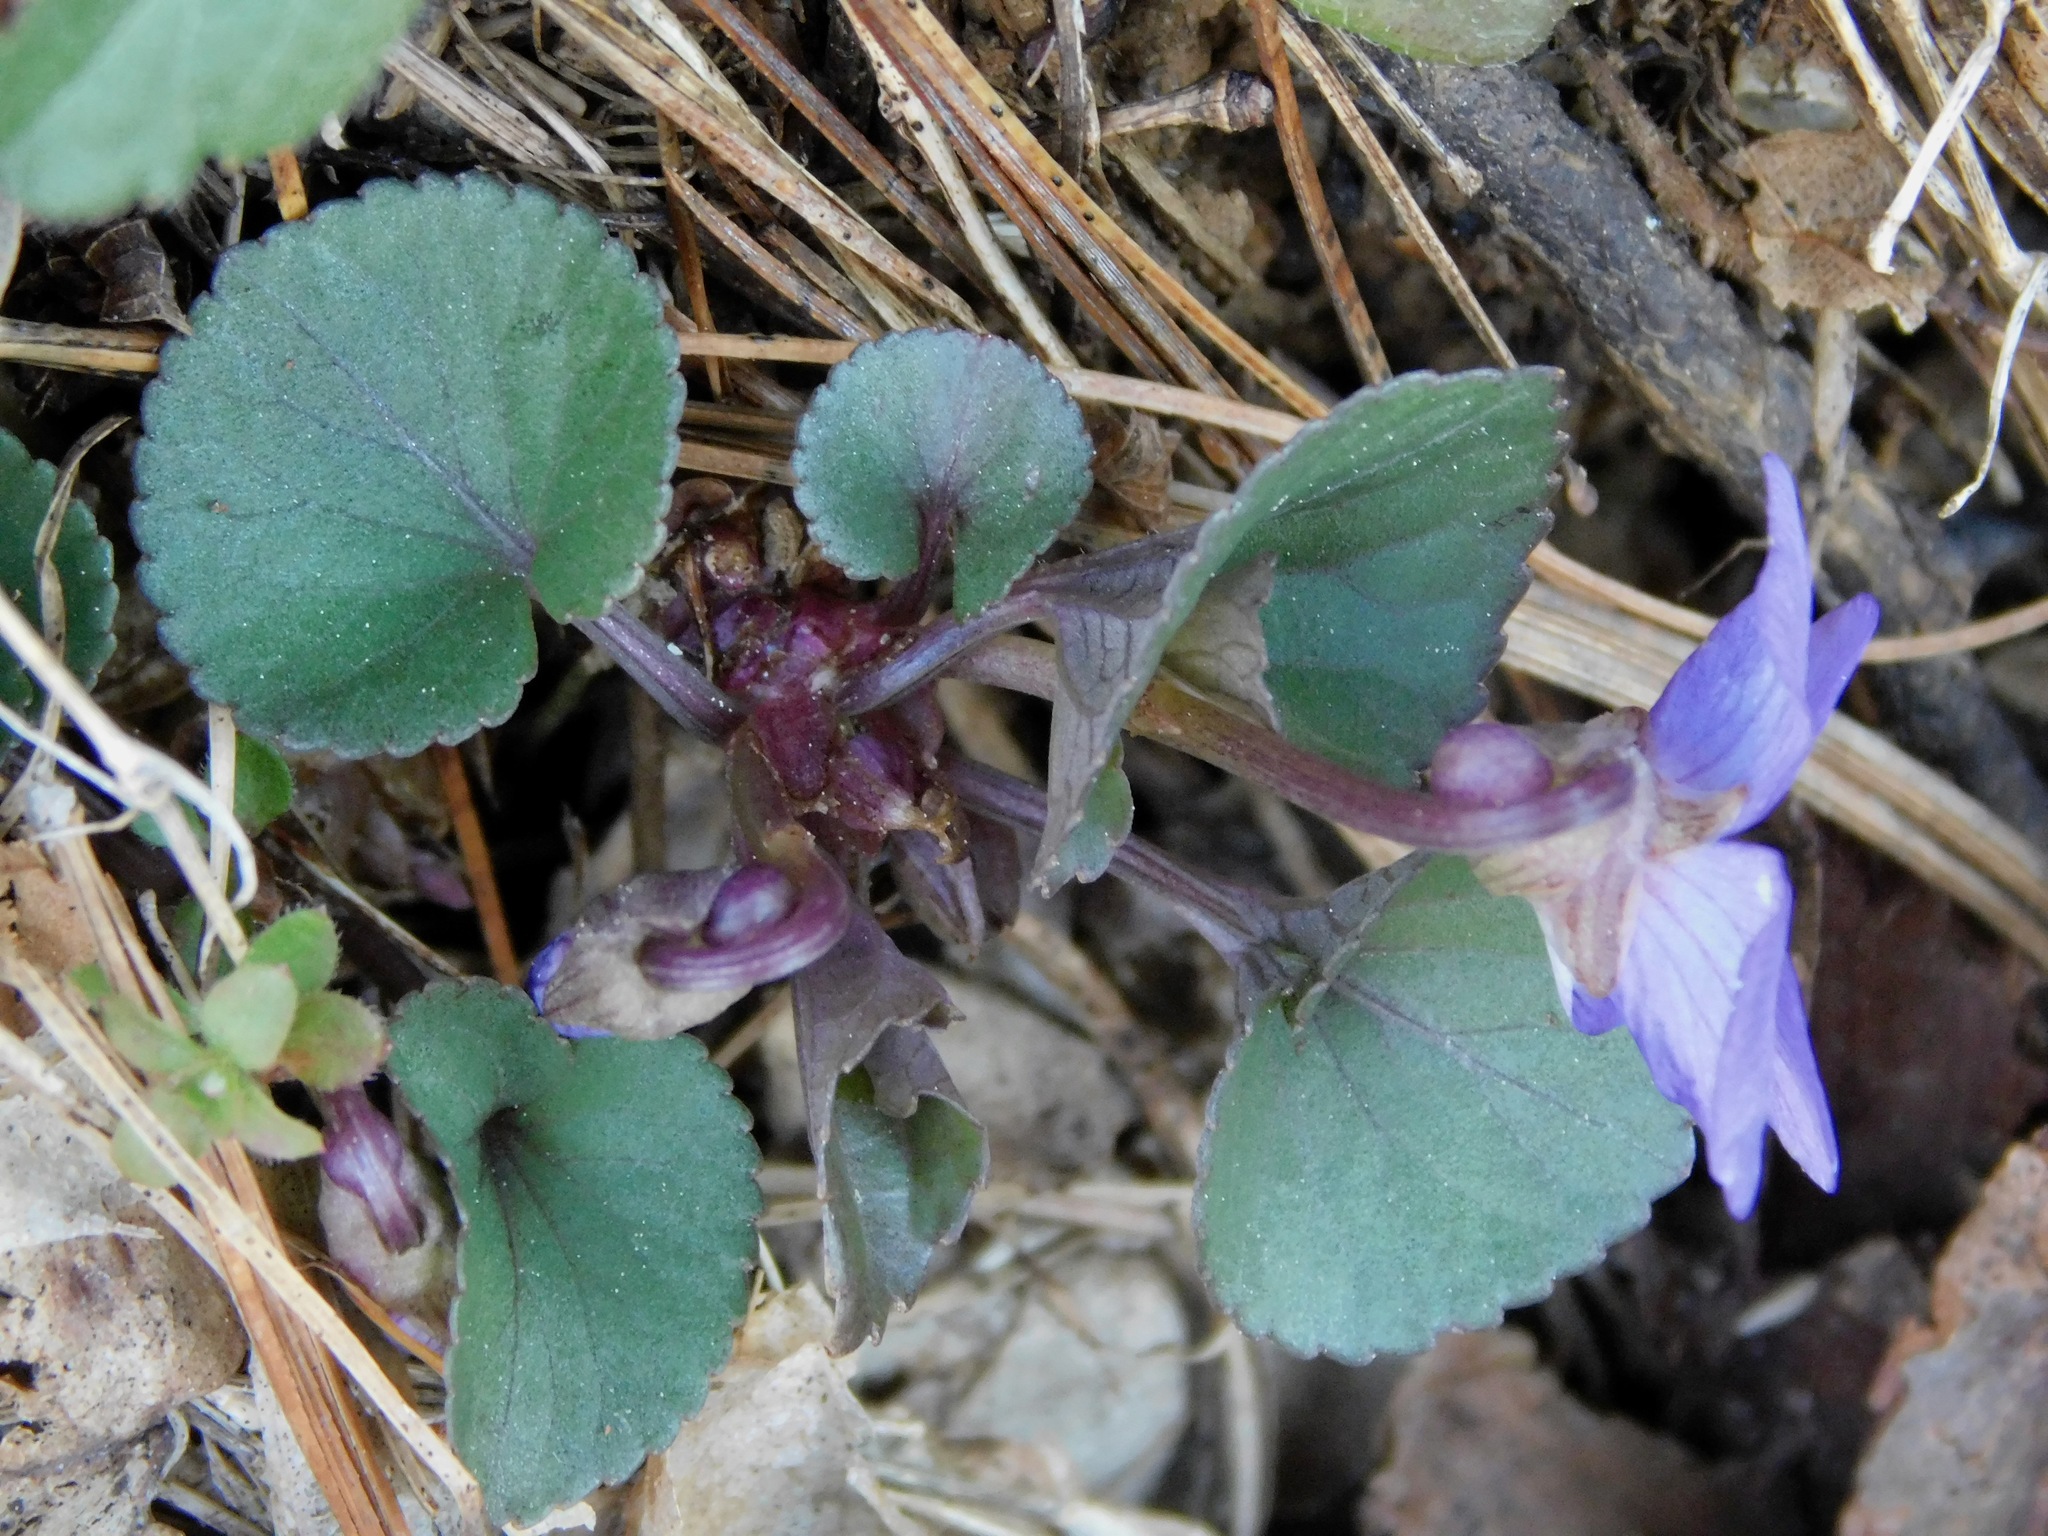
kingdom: Plantae
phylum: Tracheophyta
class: Magnoliopsida
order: Malpighiales
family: Violaceae
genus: Viola
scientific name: Viola hirsutula
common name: Southern wood violet
